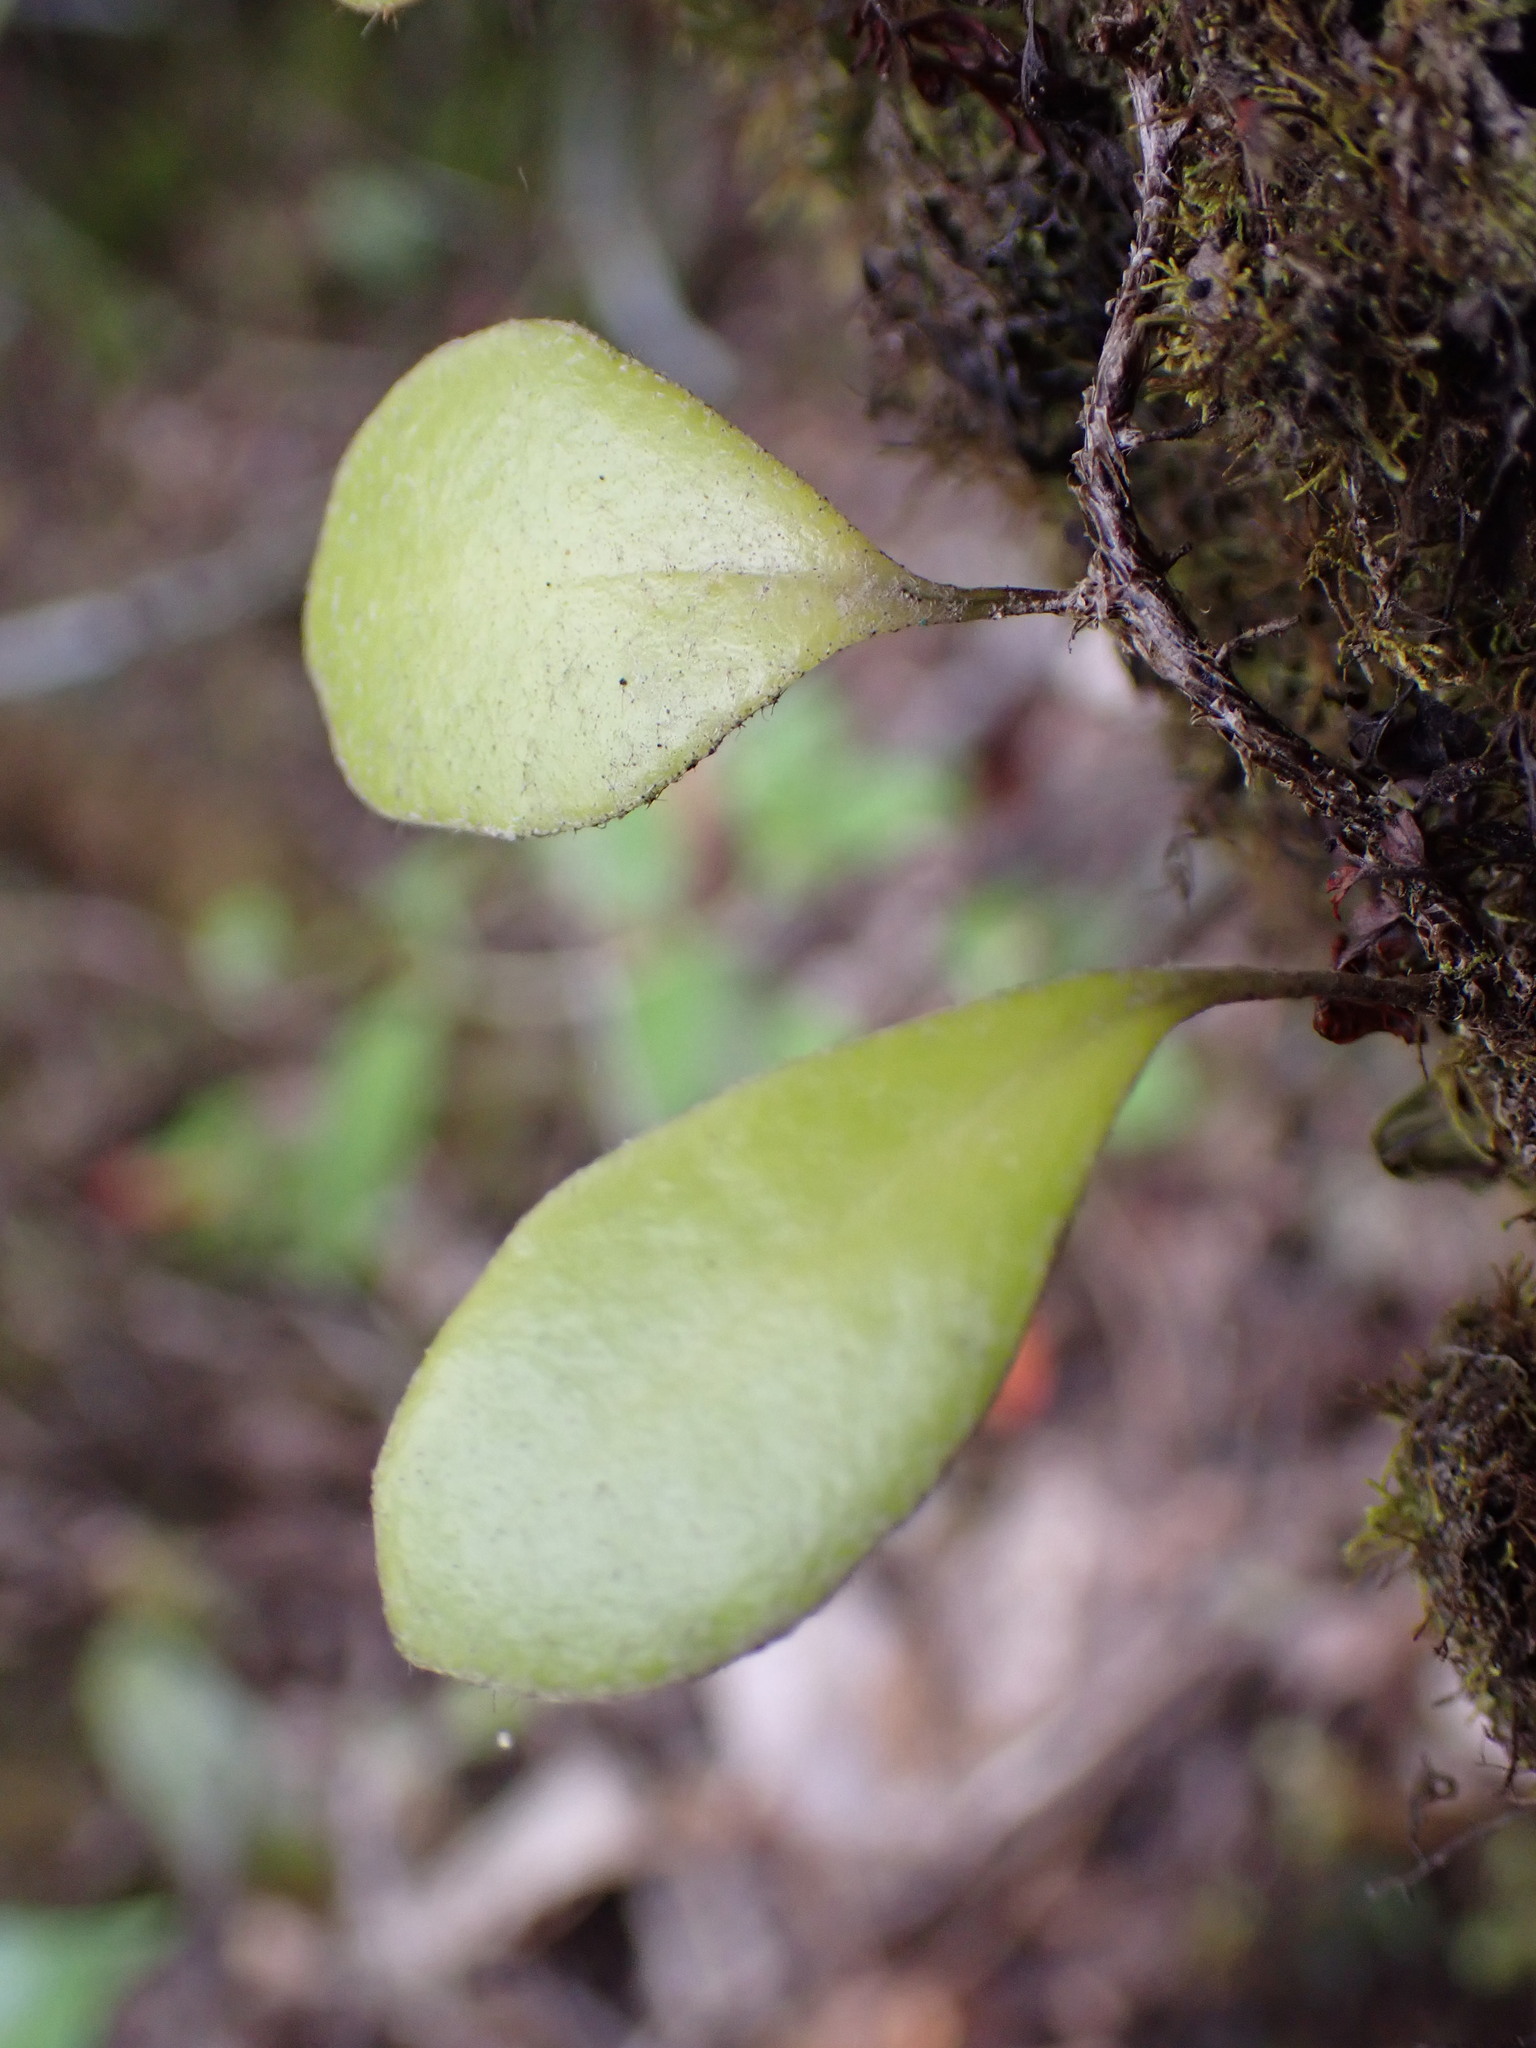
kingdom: Plantae
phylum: Tracheophyta
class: Polypodiopsida
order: Polypodiales
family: Polypodiaceae
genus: Pyrrosia
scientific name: Pyrrosia eleagnifolia
